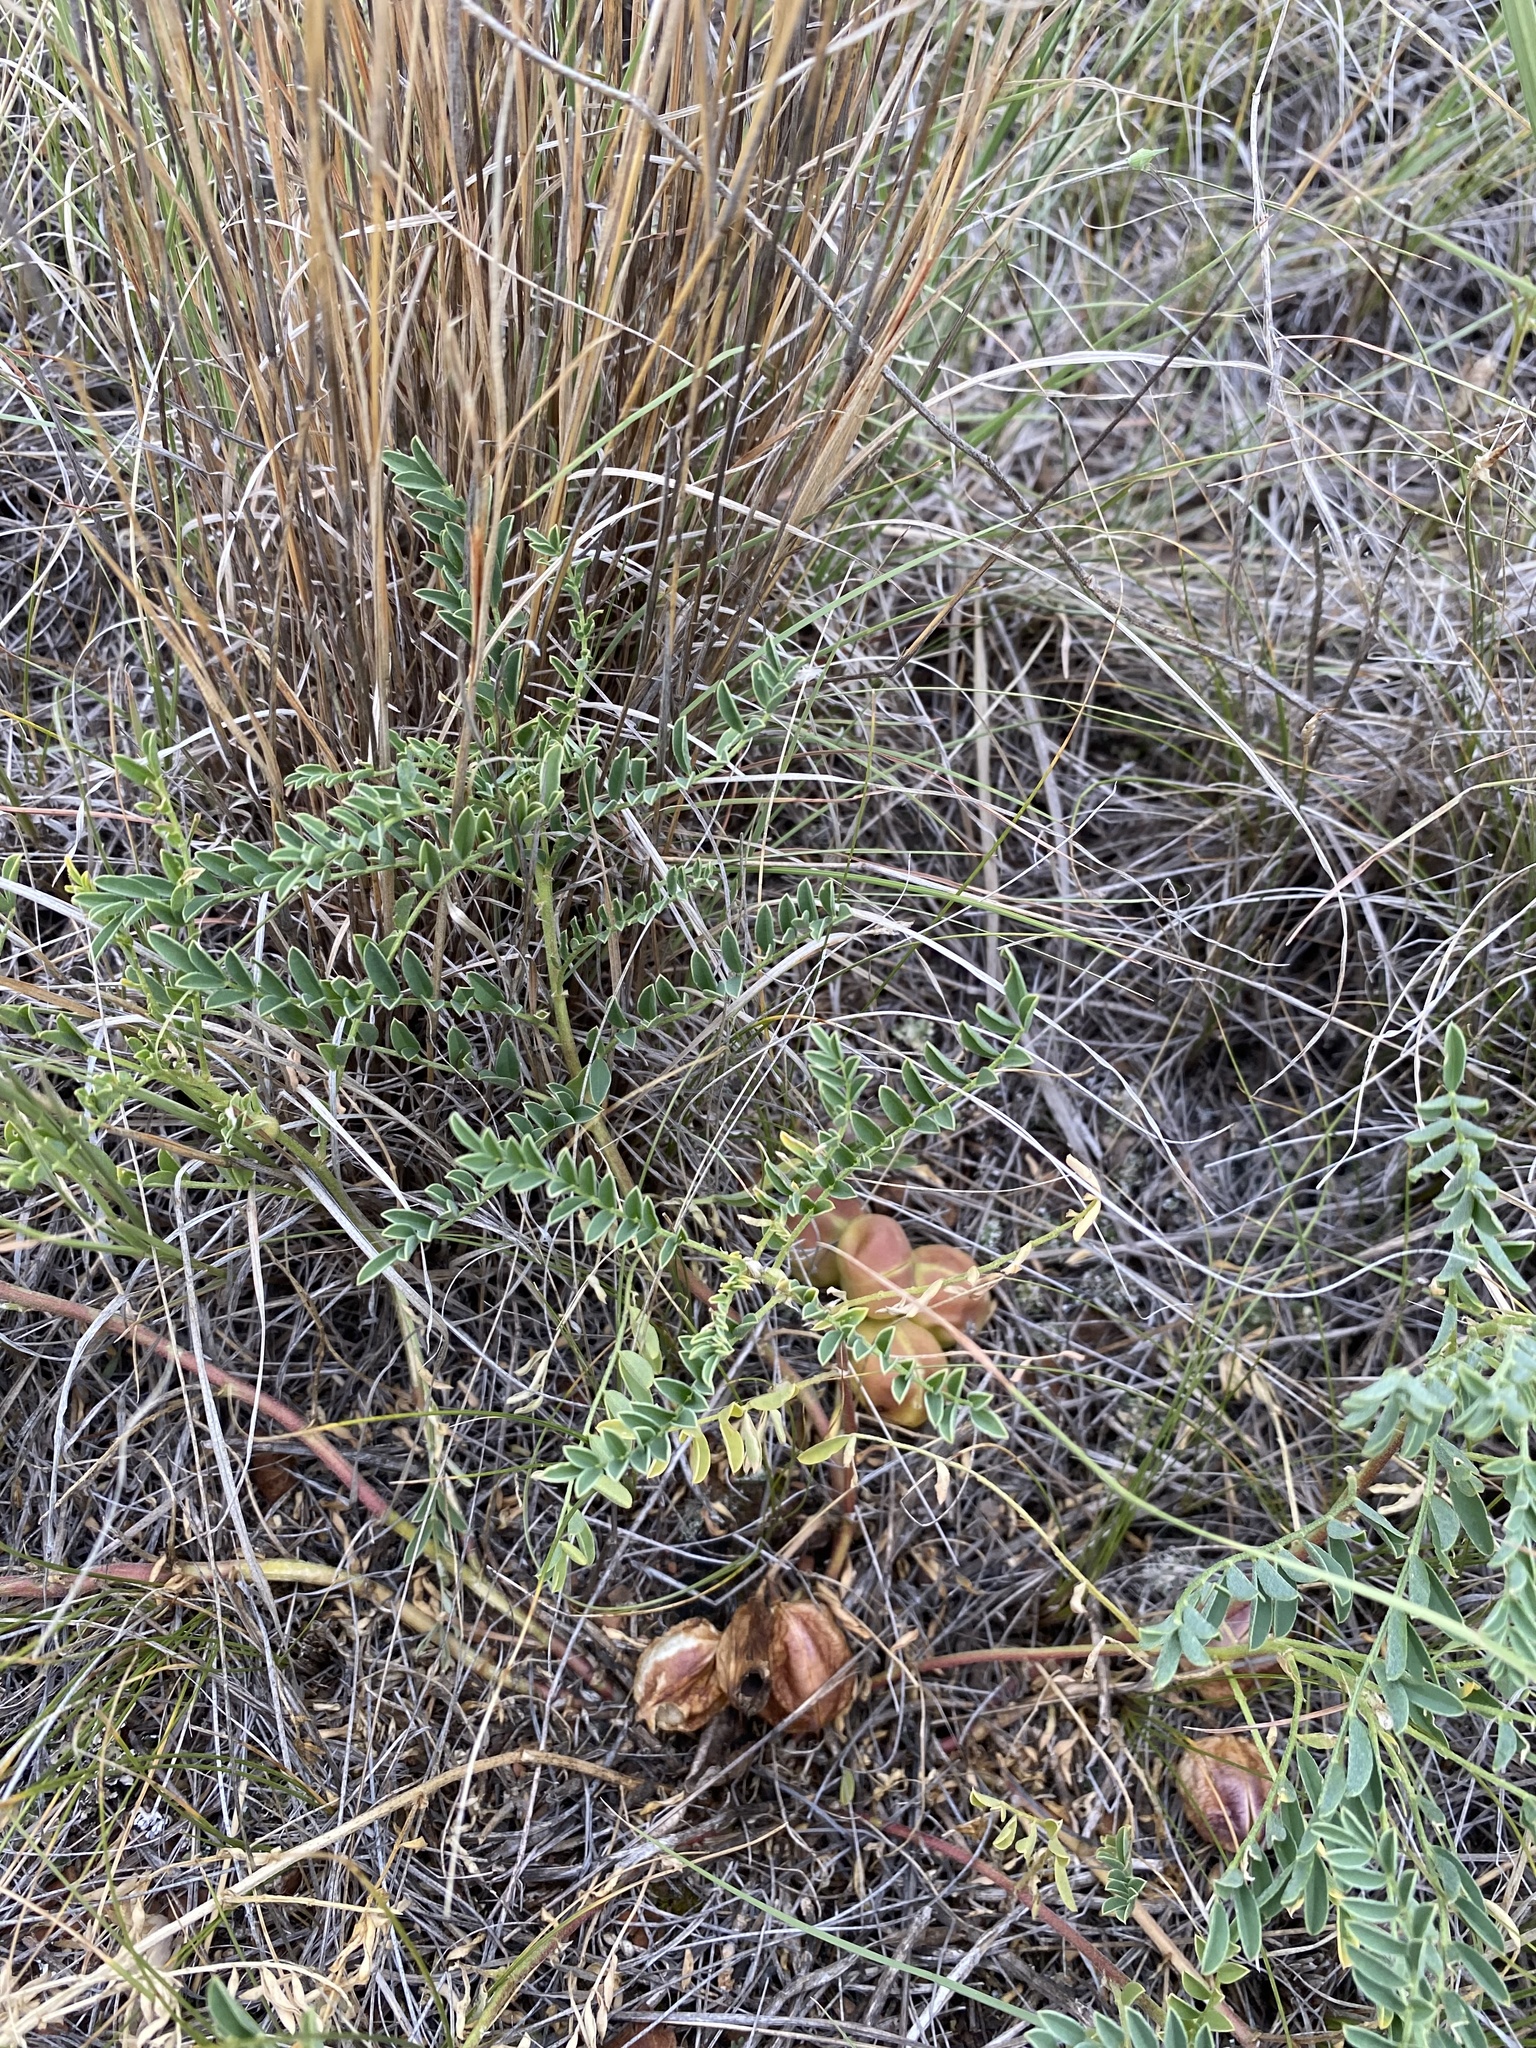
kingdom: Plantae
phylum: Tracheophyta
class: Magnoliopsida
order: Fabales
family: Fabaceae
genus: Astragalus
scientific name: Astragalus crassicarpus
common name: Ground-plum milk-vetch
